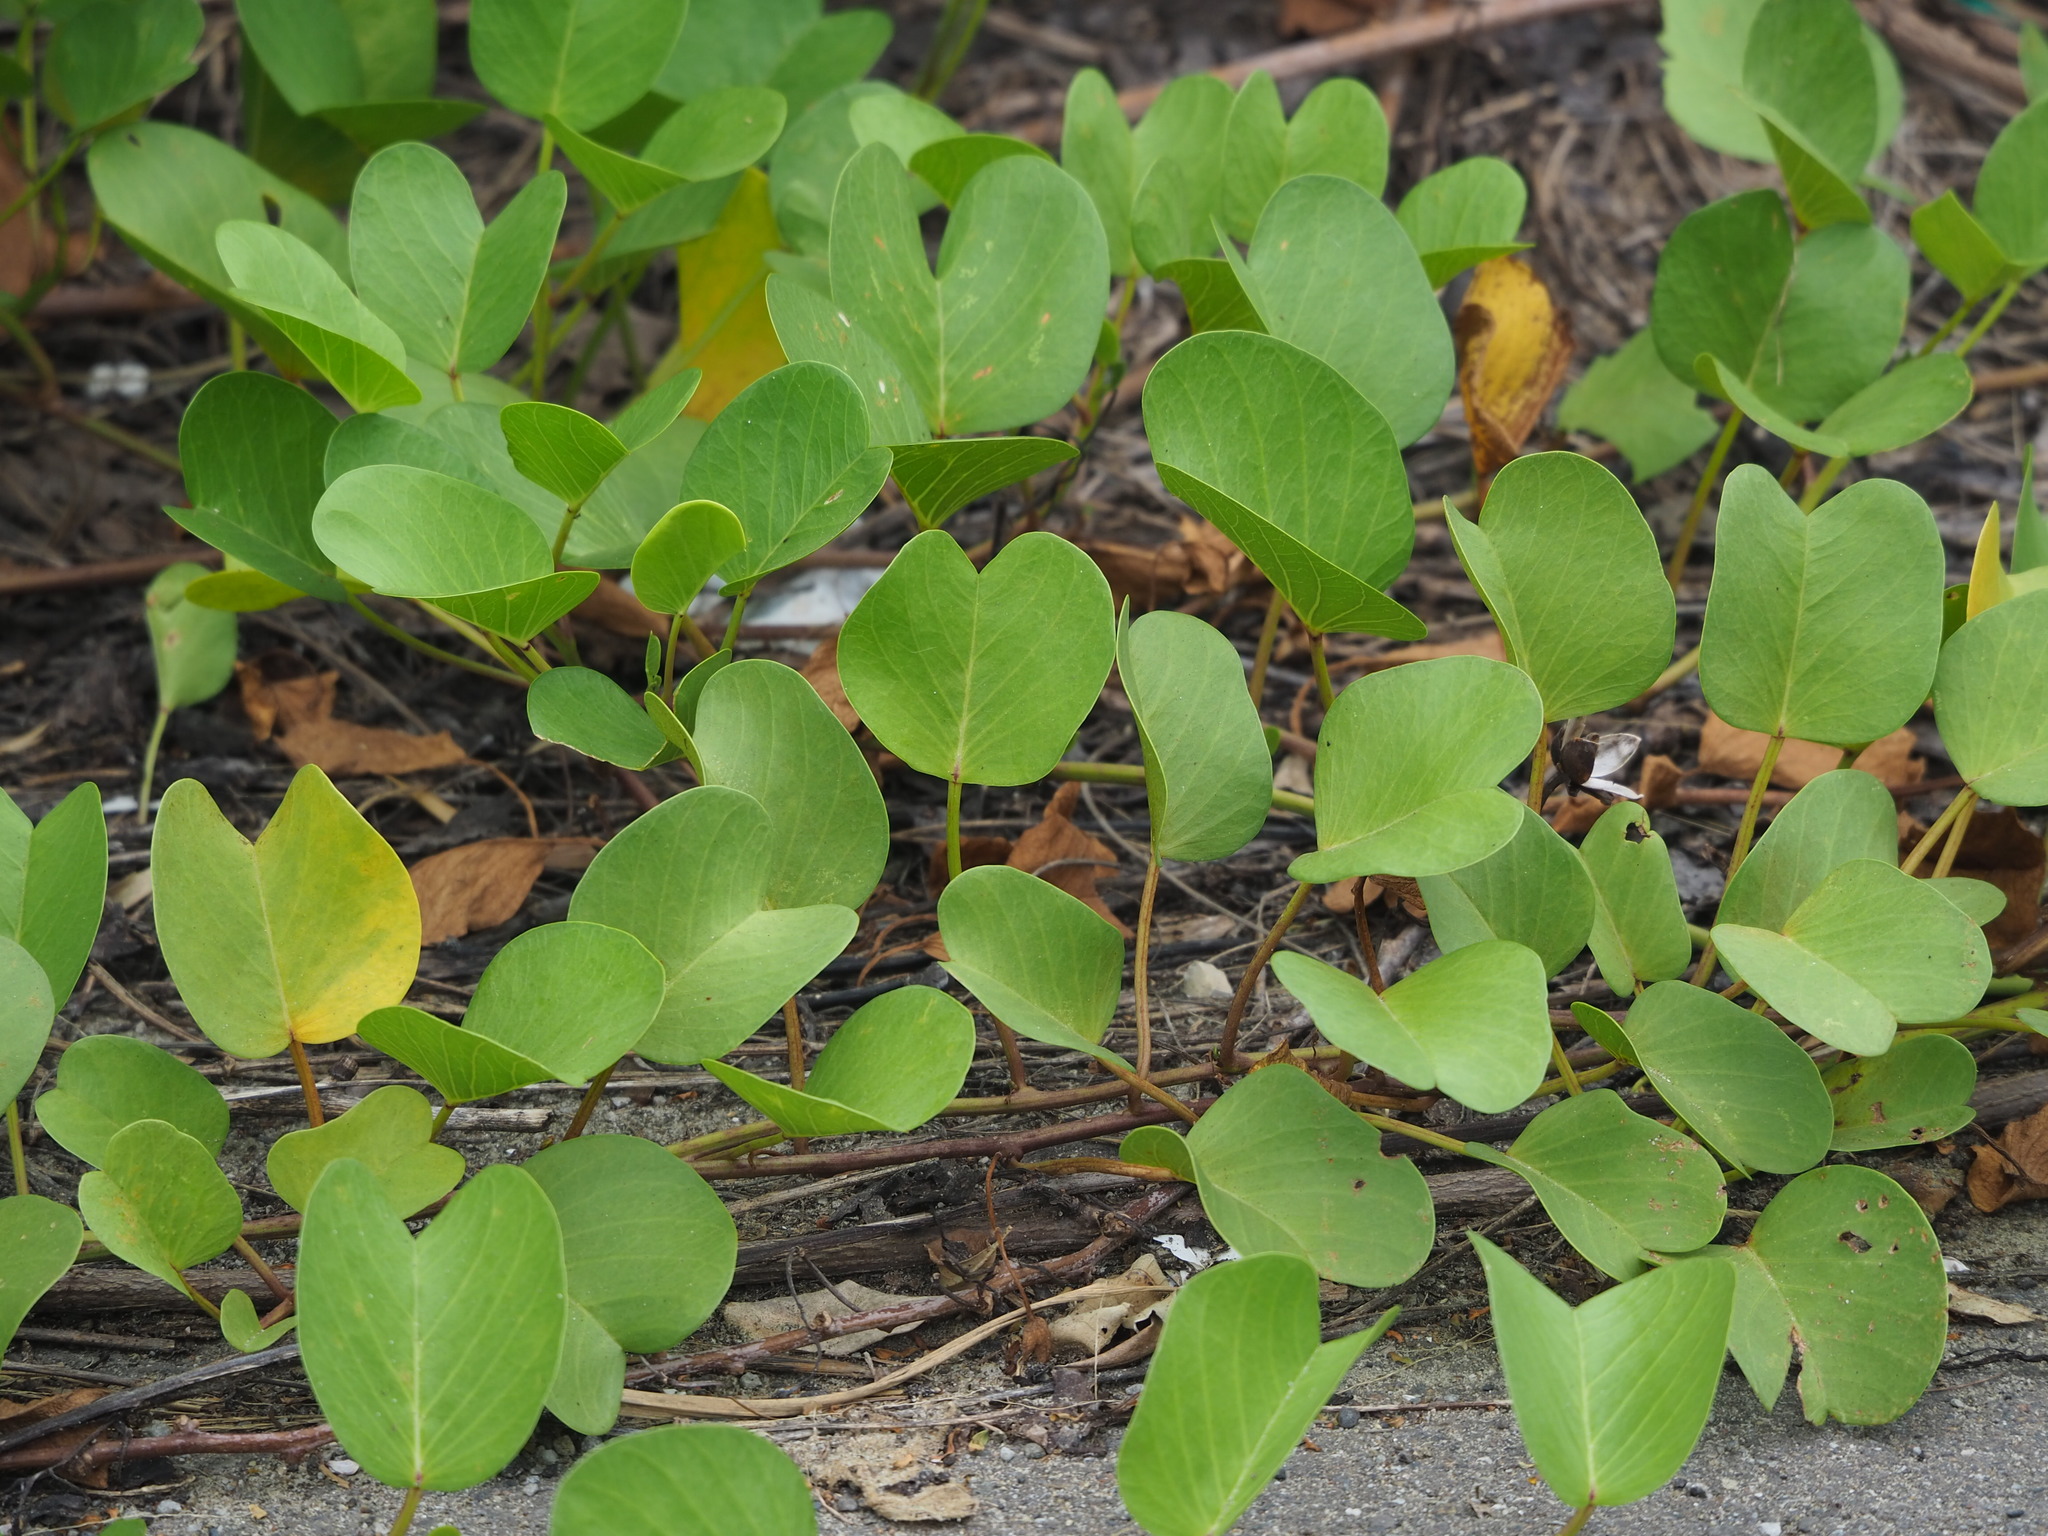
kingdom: Plantae
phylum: Tracheophyta
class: Magnoliopsida
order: Solanales
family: Convolvulaceae
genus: Ipomoea
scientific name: Ipomoea pes-caprae
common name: Beach morning glory
